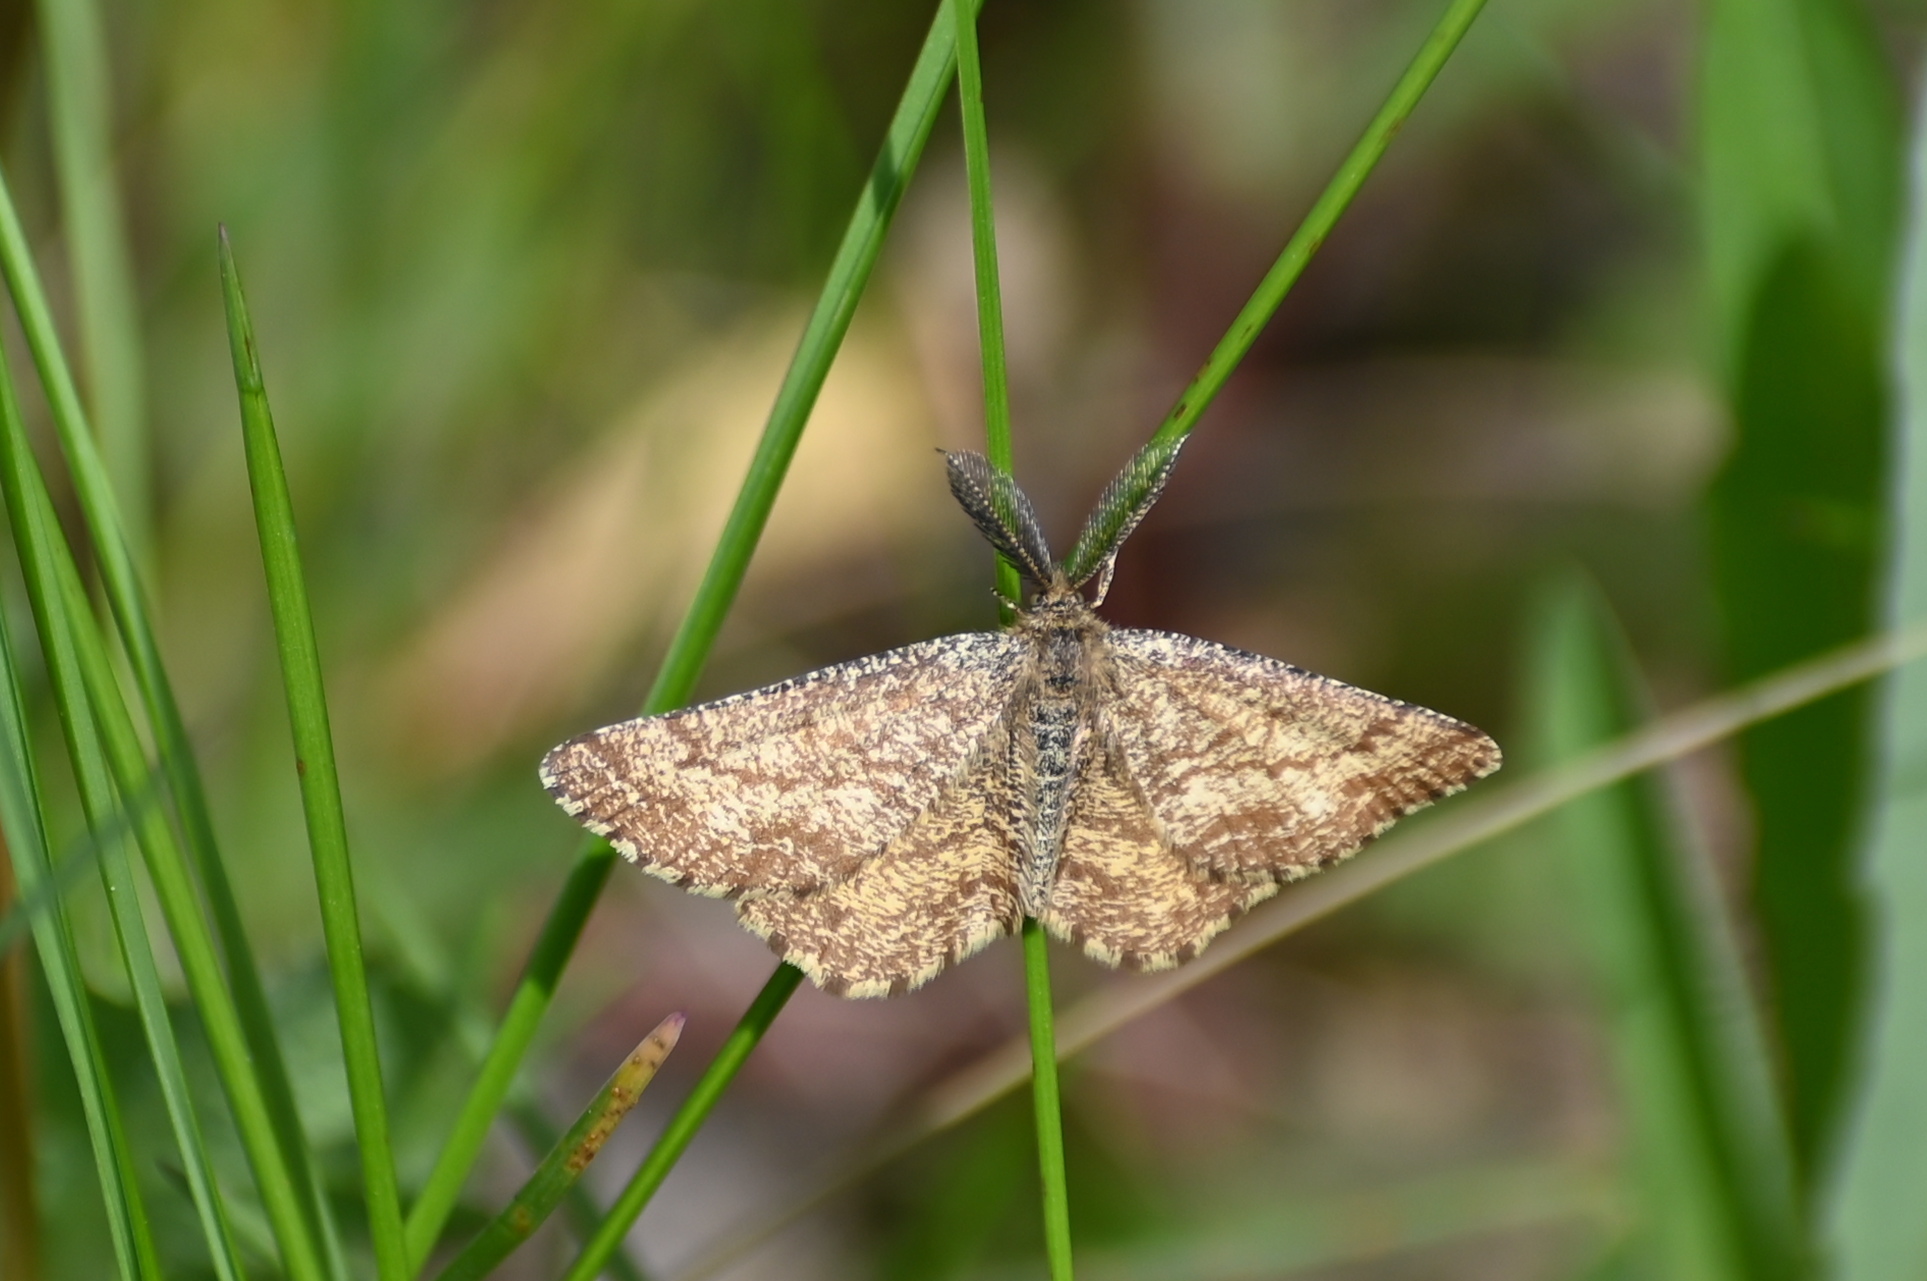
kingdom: Animalia
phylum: Arthropoda
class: Insecta
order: Lepidoptera
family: Geometridae
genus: Ematurga
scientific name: Ematurga atomaria
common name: Common heath
